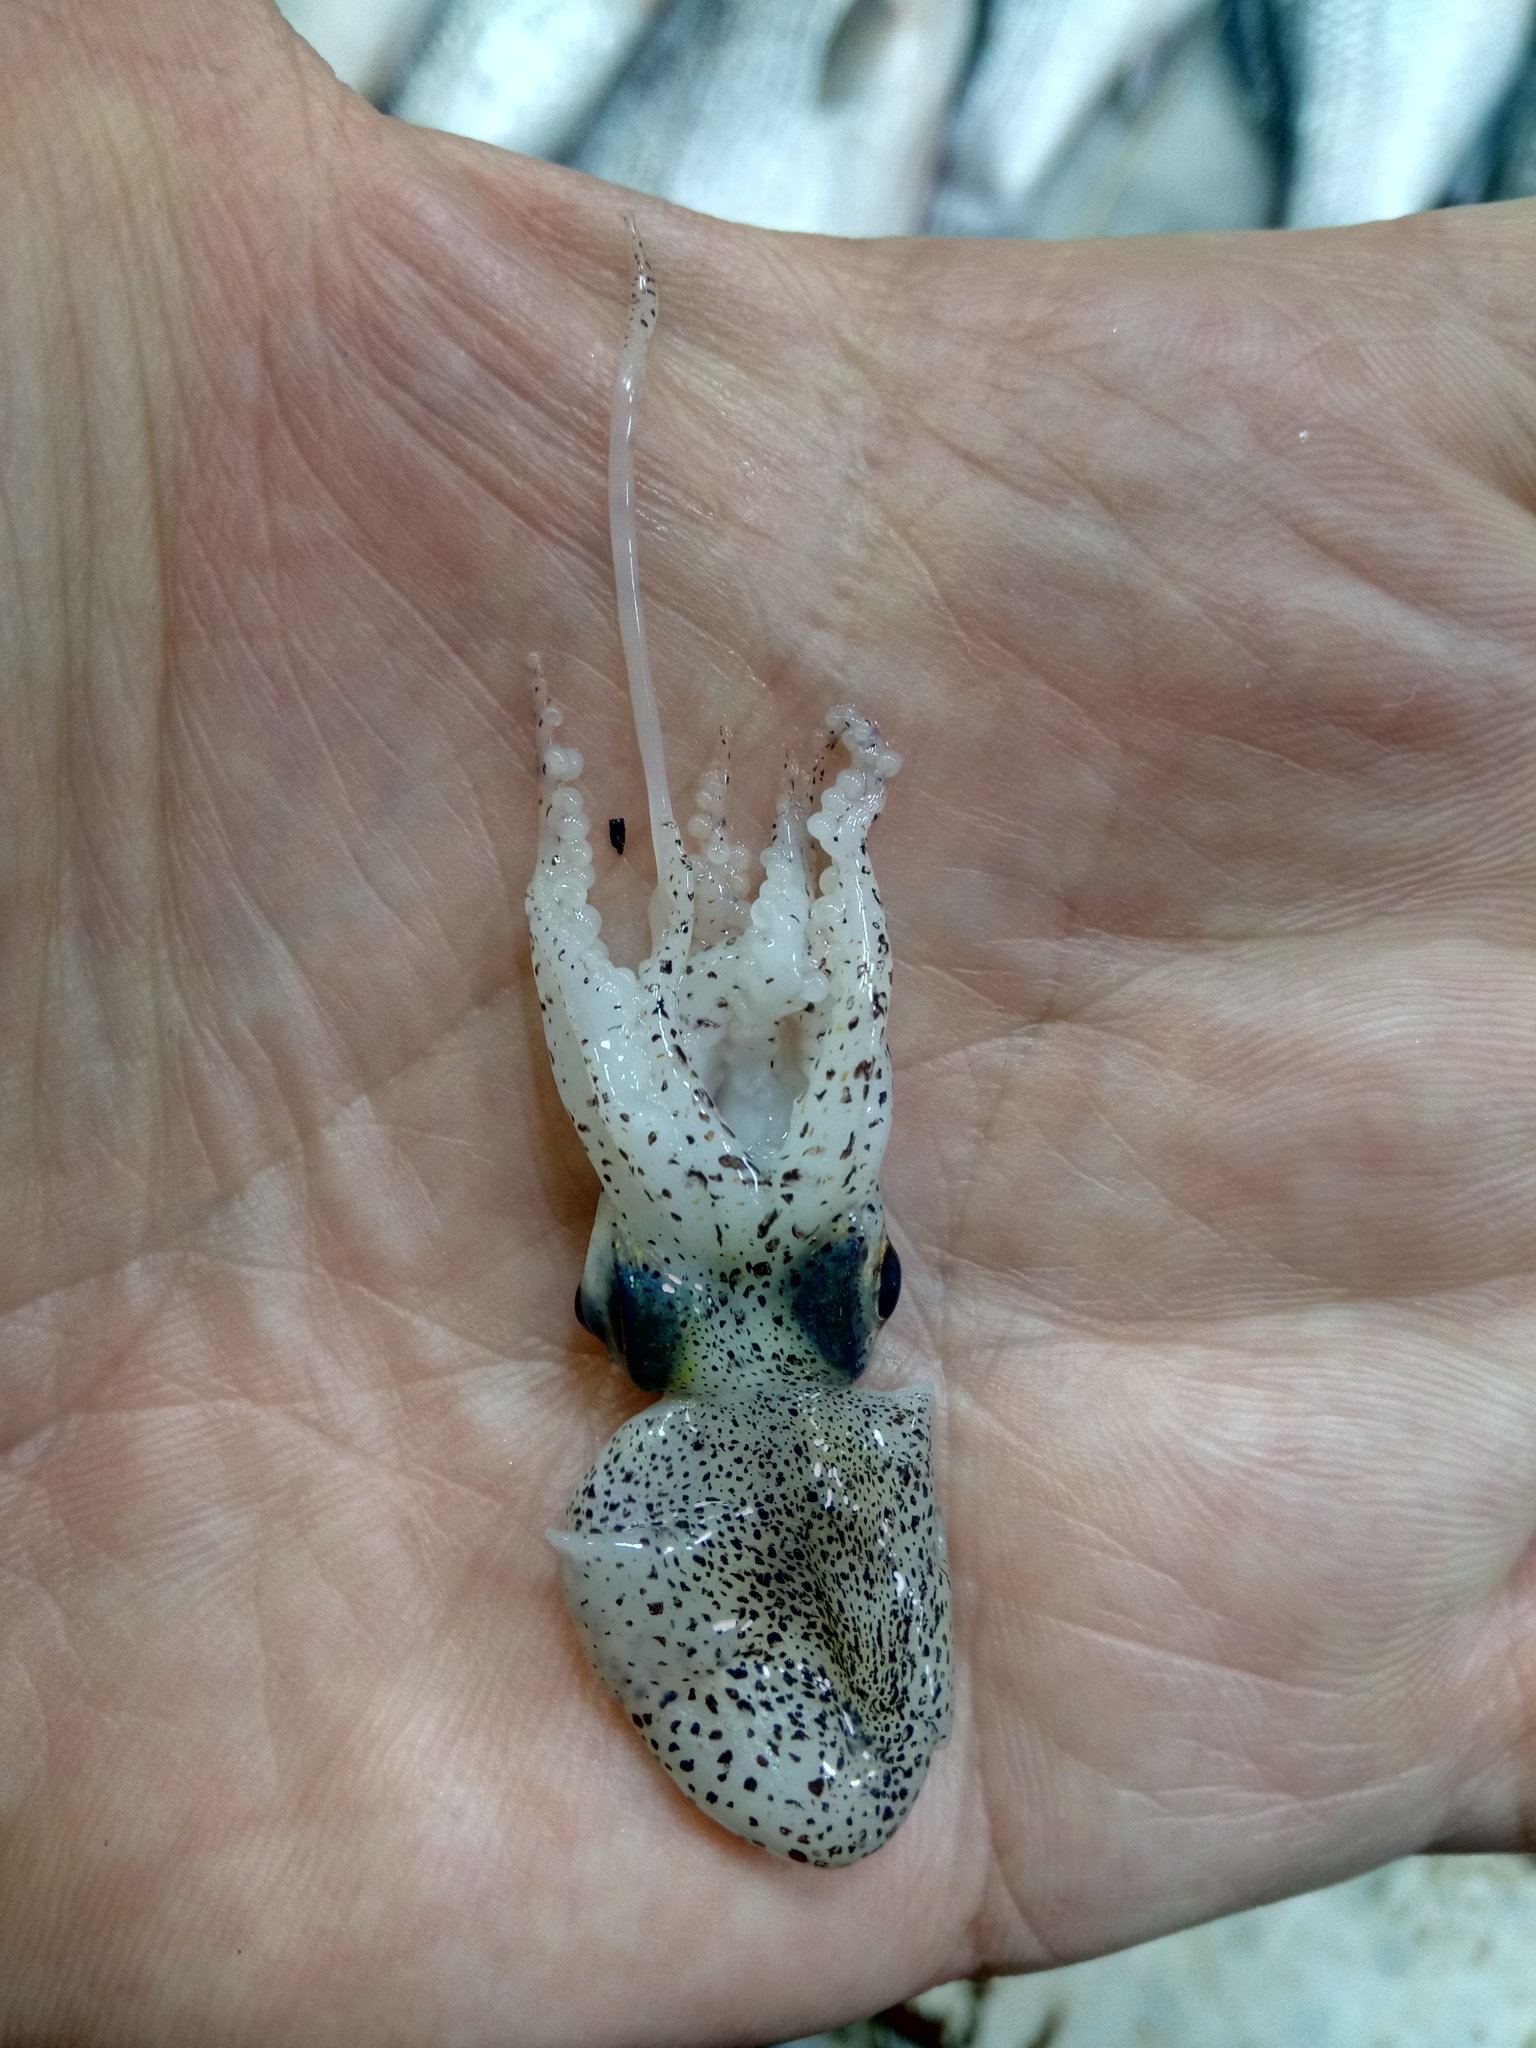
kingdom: Animalia
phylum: Mollusca
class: Cephalopoda
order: Sepiida
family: Sepiolidae
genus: Sepiola
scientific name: Sepiola rondeletii
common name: Dwarf bobtail
